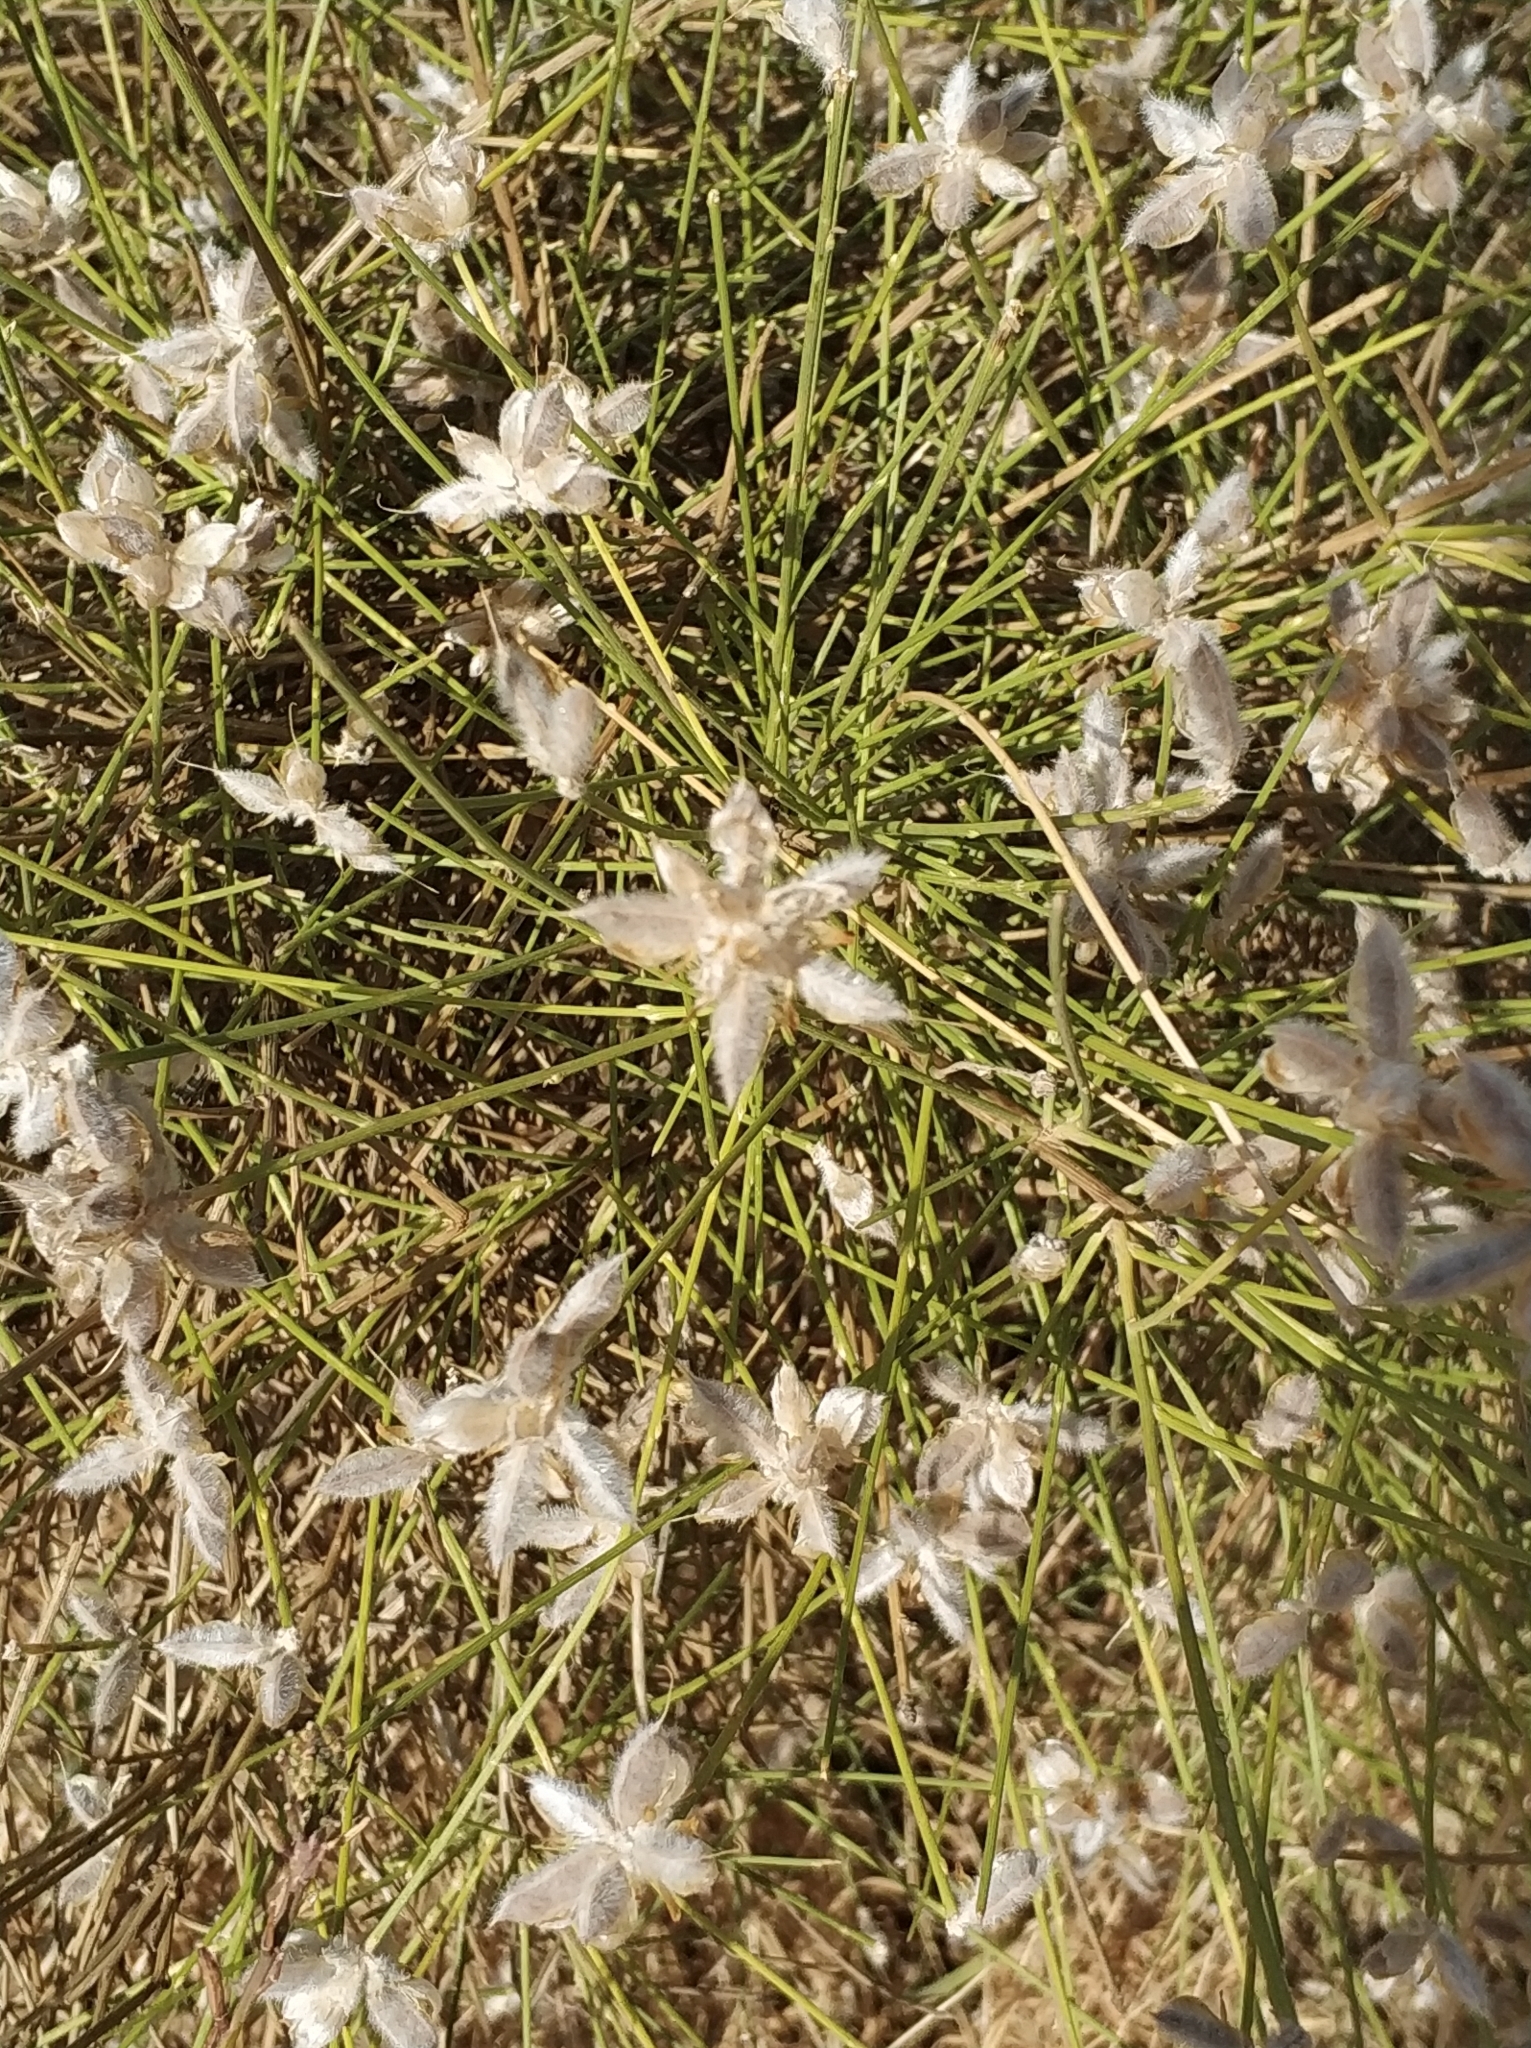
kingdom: Plantae
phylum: Tracheophyta
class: Magnoliopsida
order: Fabales
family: Fabaceae
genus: Genista
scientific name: Genista umbellata
